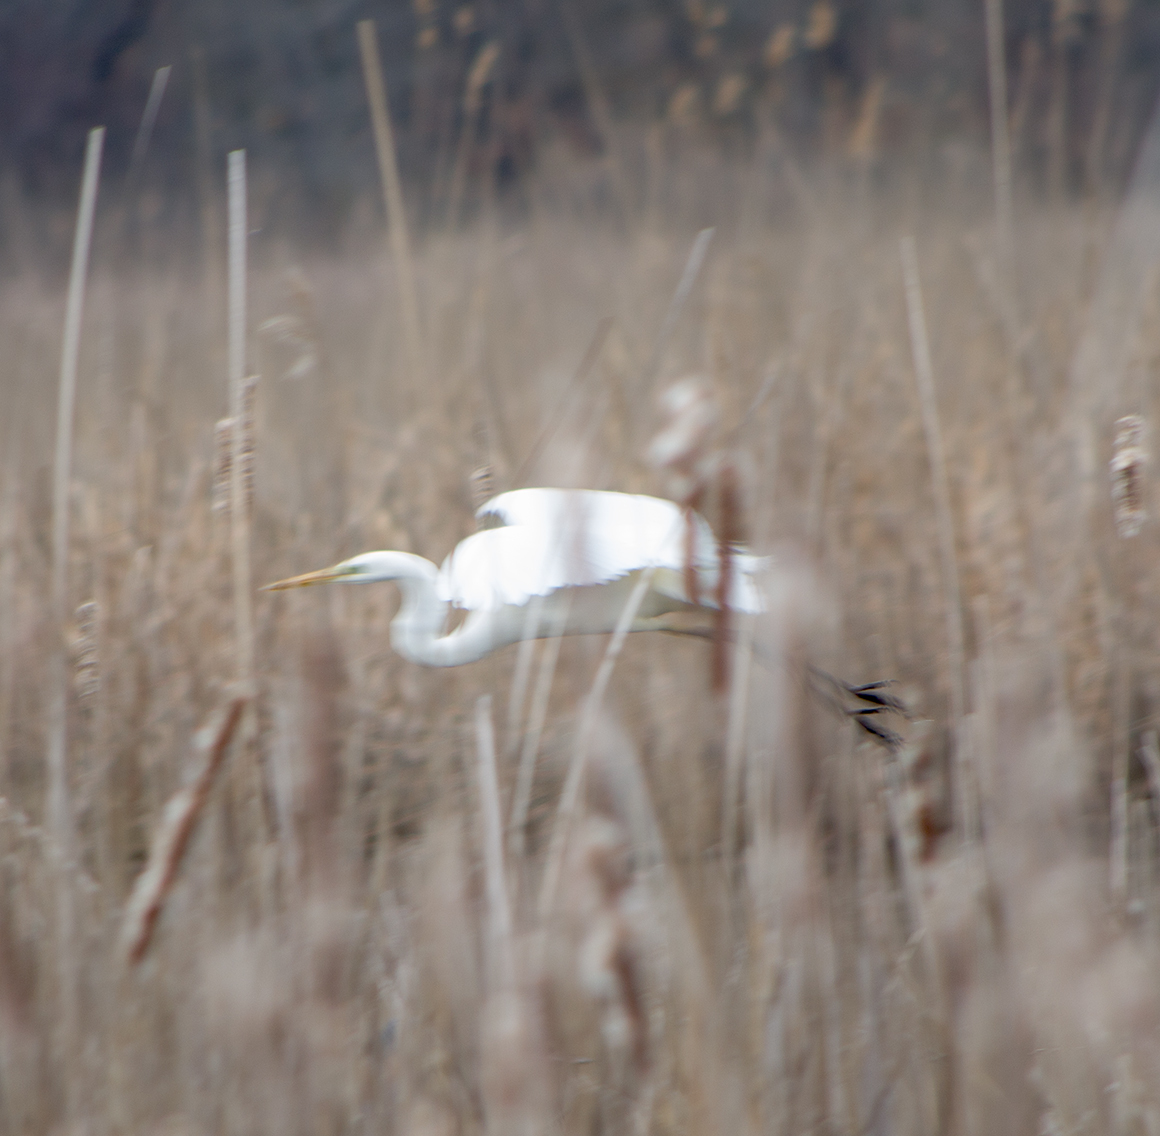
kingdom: Animalia
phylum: Chordata
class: Aves
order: Pelecaniformes
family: Ardeidae
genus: Ardea
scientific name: Ardea alba
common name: Great egret
